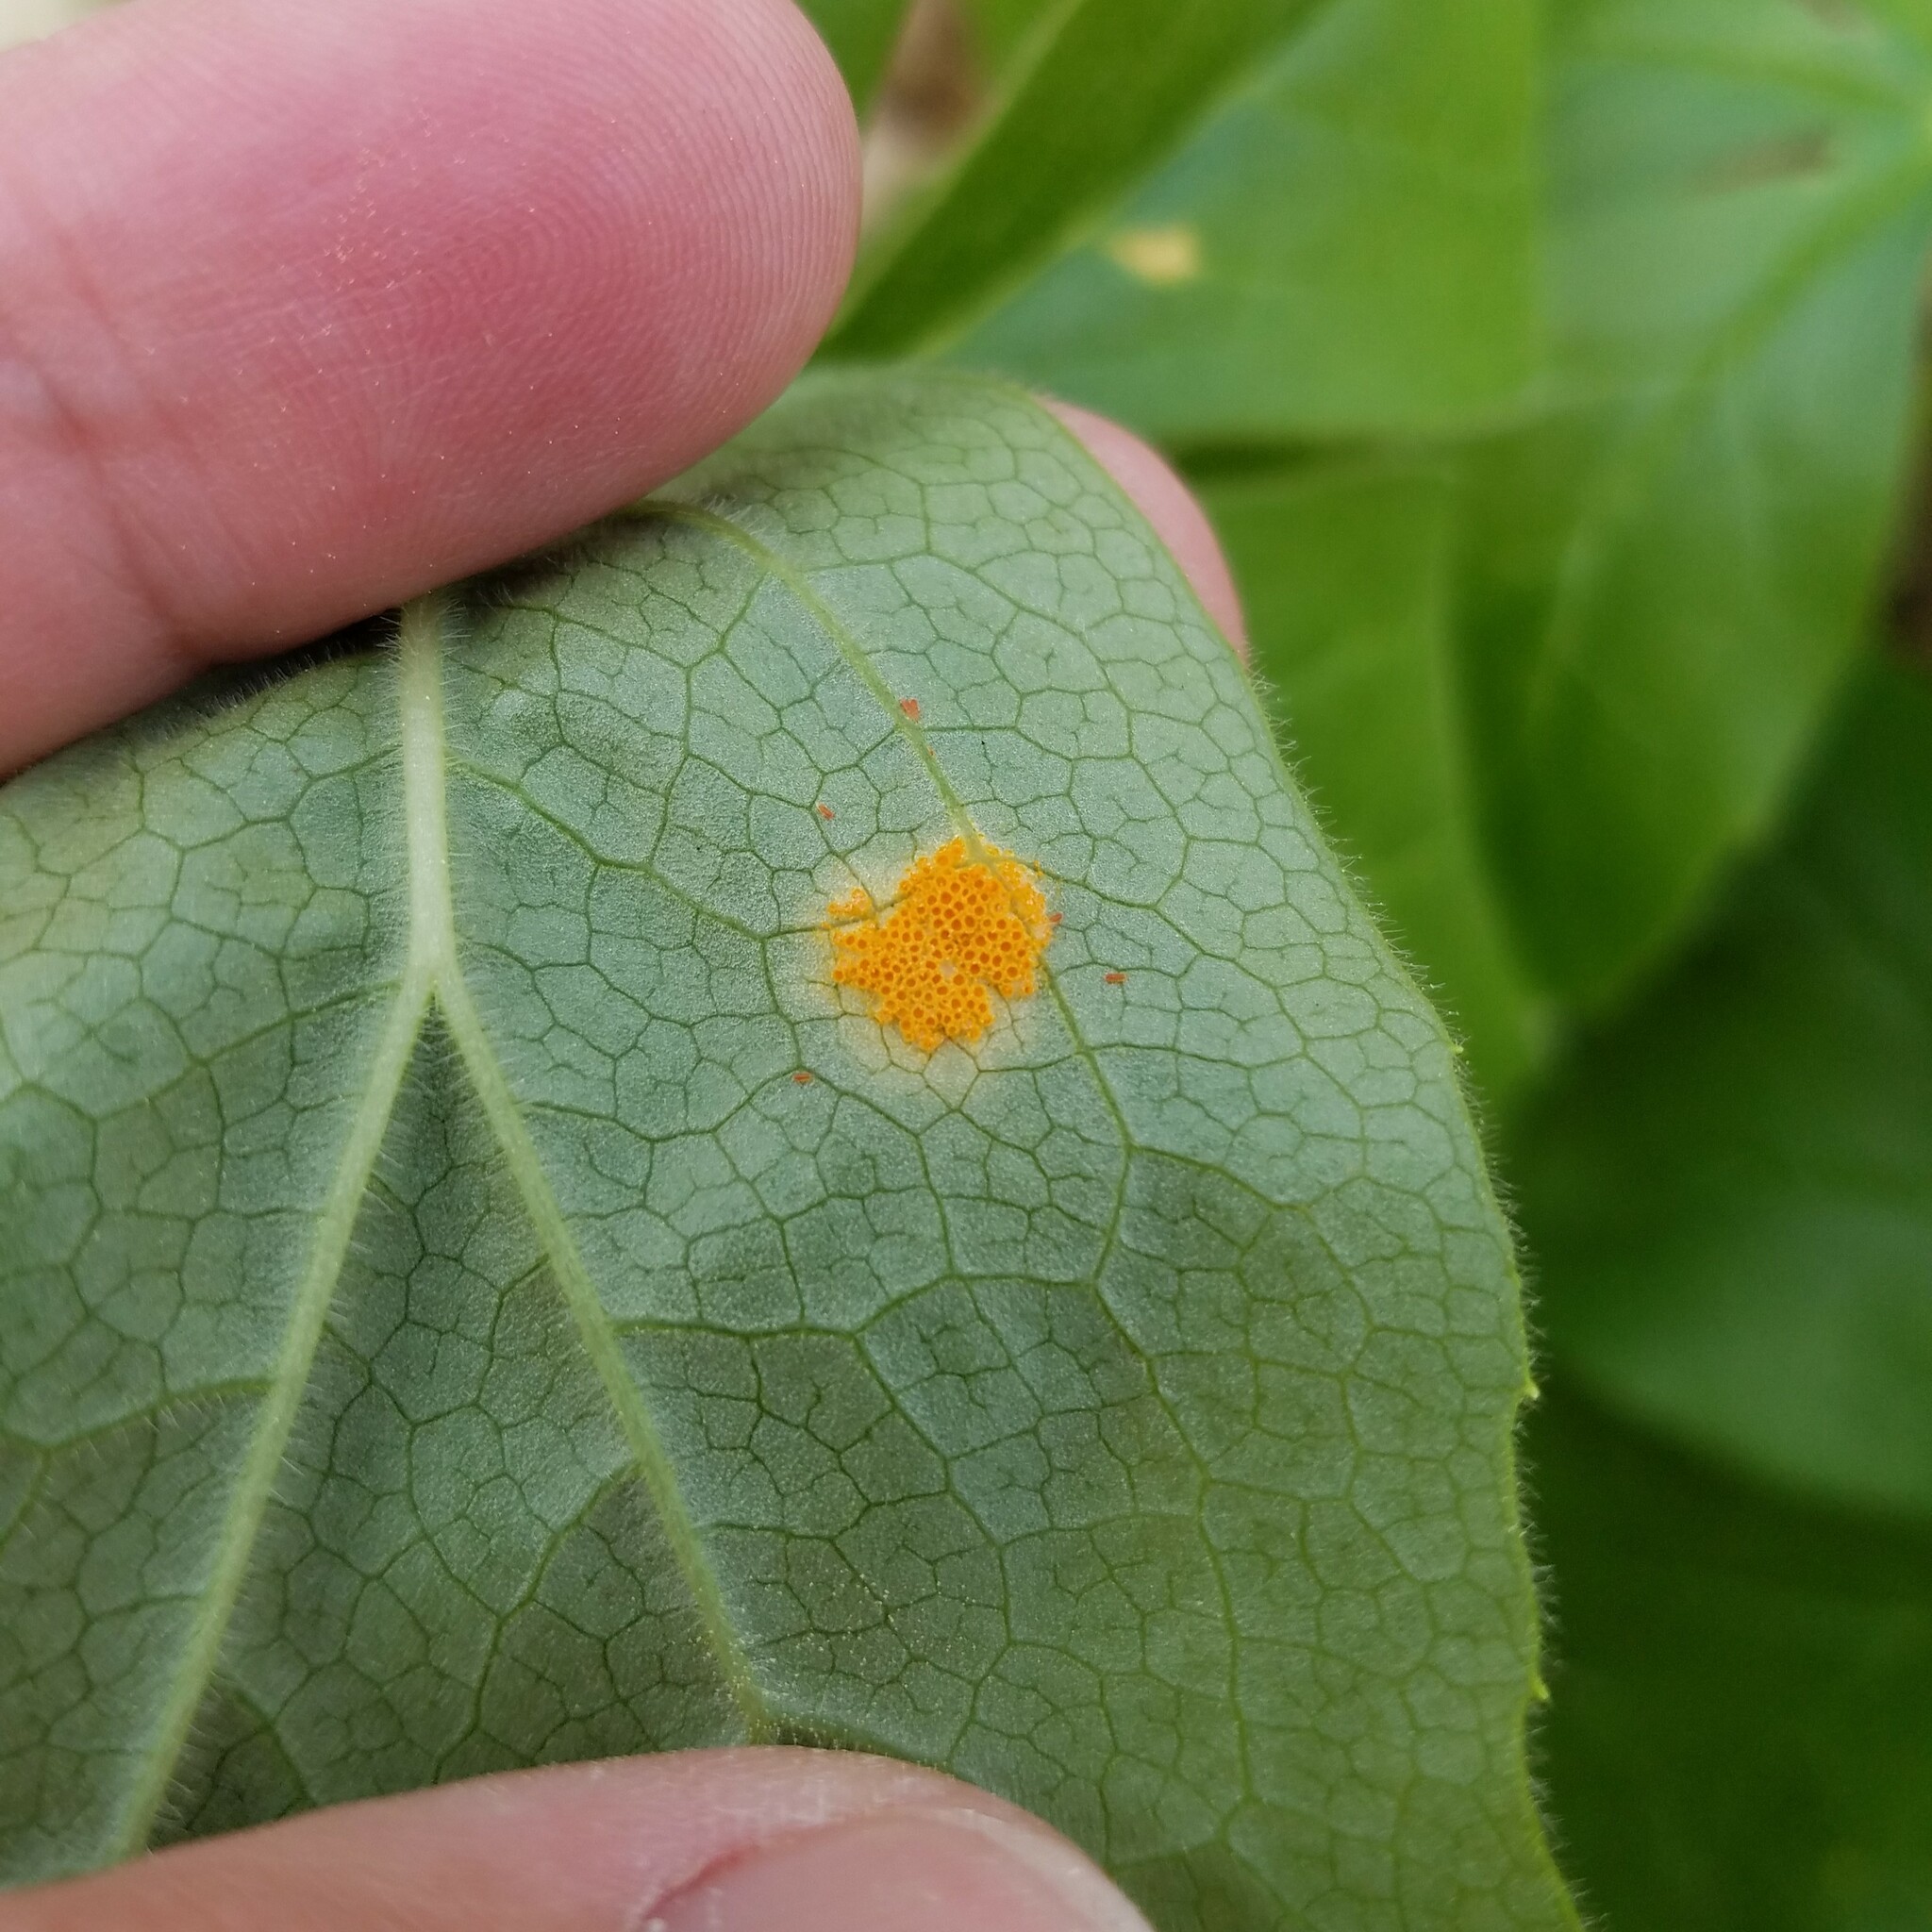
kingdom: Fungi
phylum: Basidiomycota
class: Pucciniomycetes
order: Pucciniales
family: Pucciniaceae
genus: Puccinia
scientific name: Puccinia podophylli
